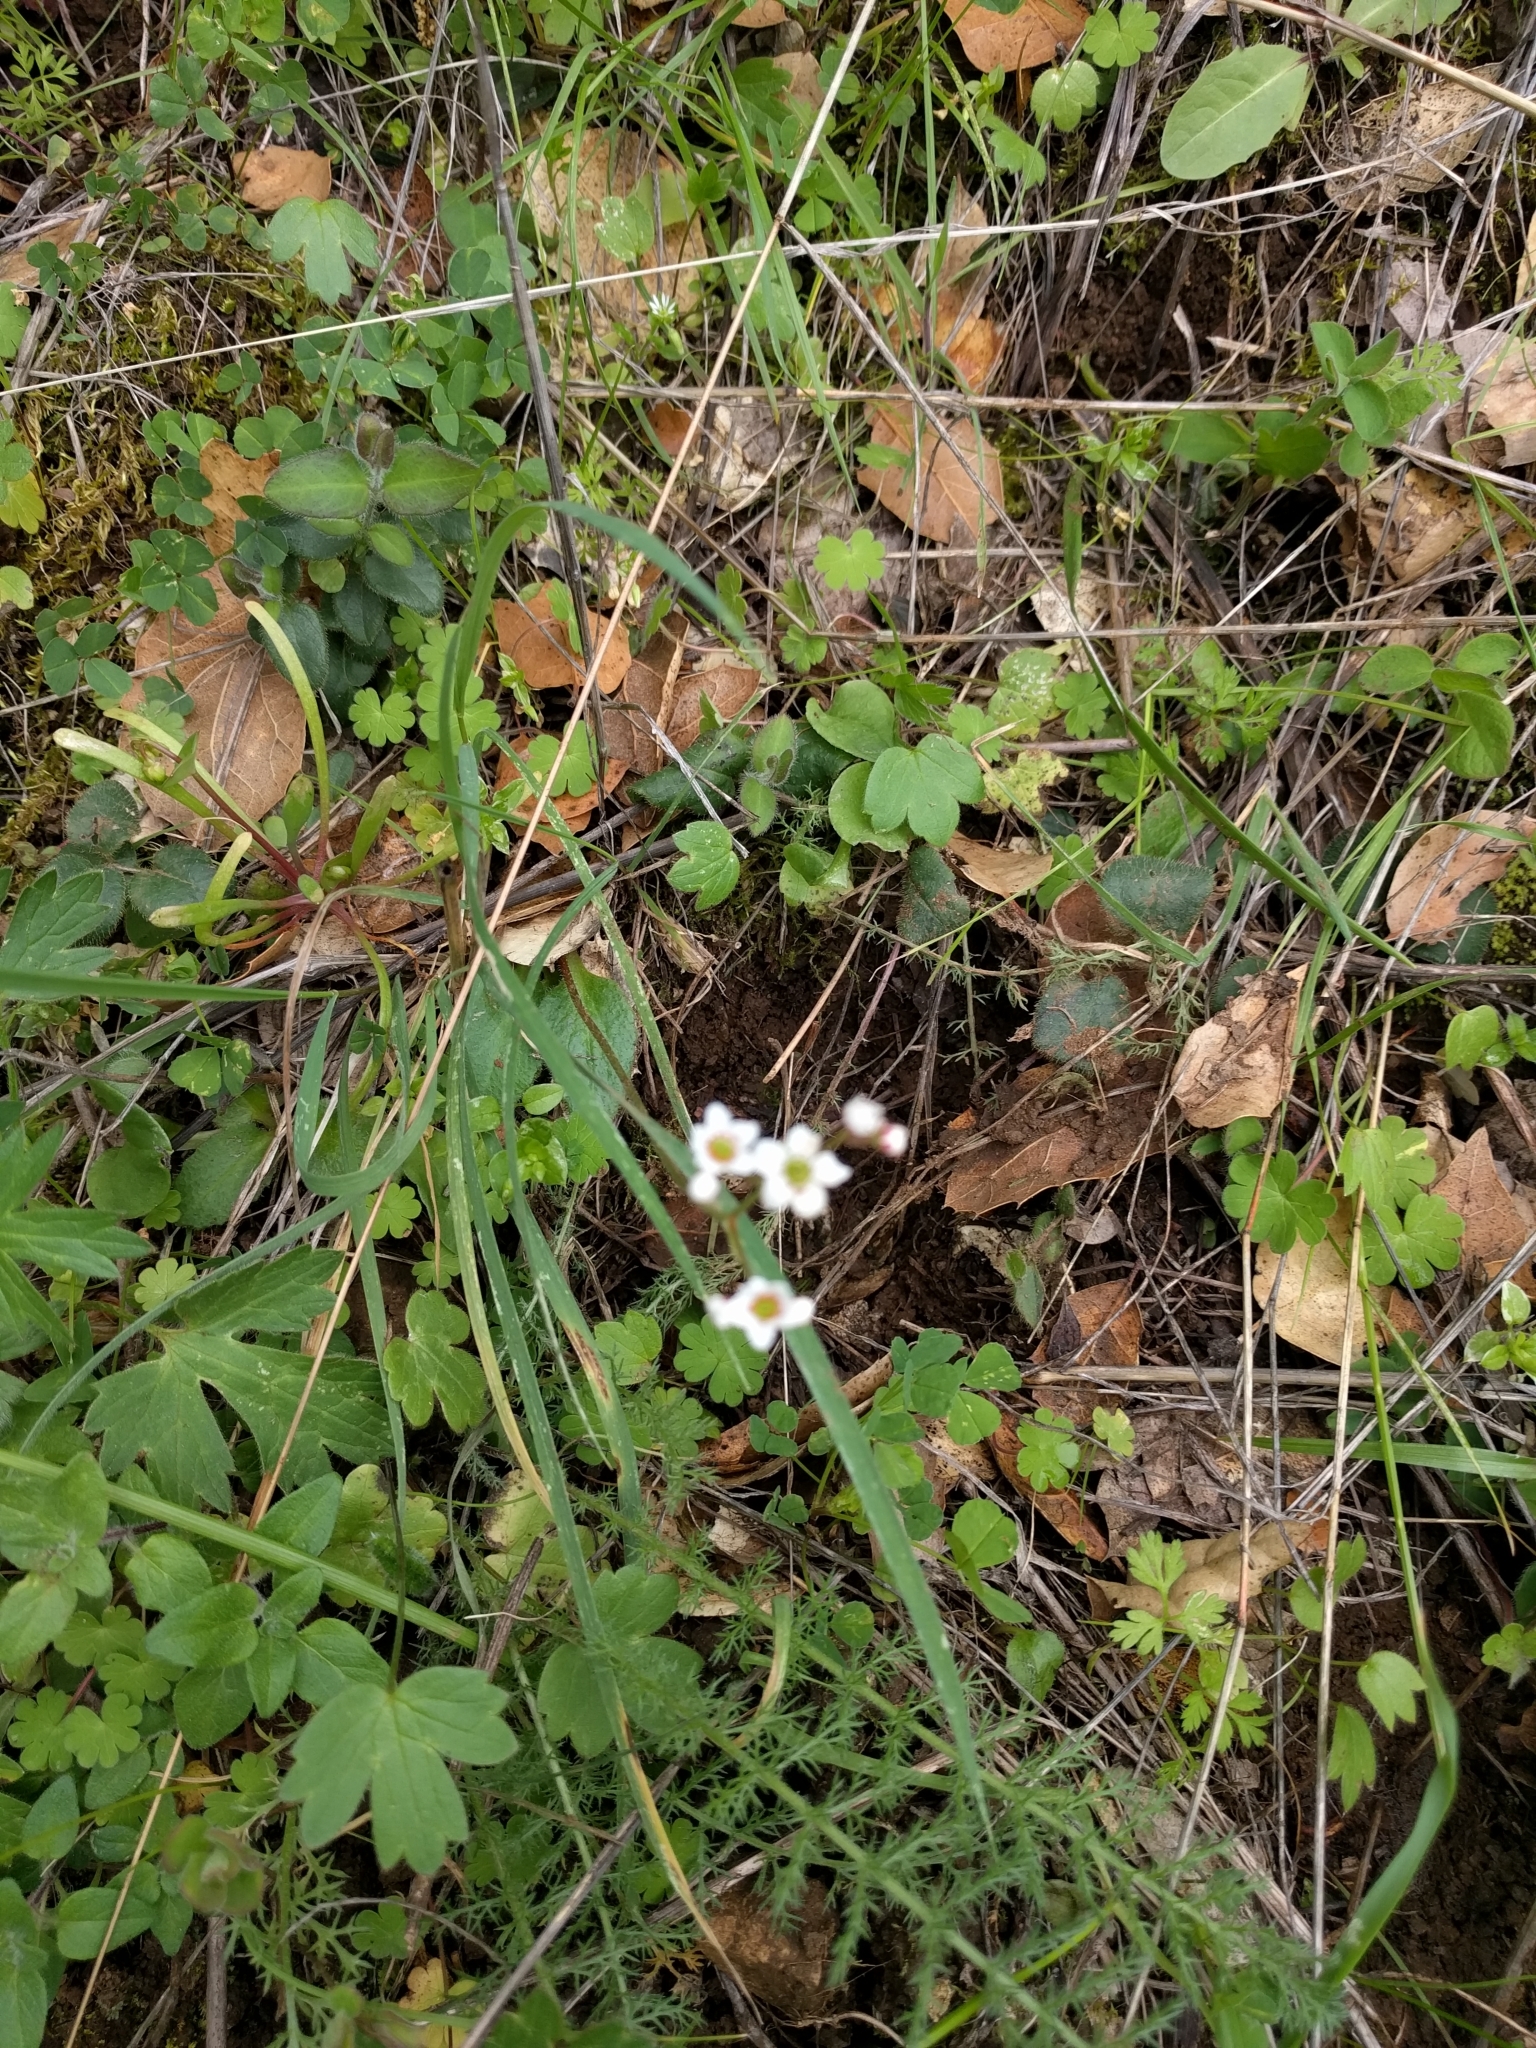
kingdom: Plantae
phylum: Tracheophyta
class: Magnoliopsida
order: Saxifragales
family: Saxifragaceae
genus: Micranthes
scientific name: Micranthes californica
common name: California saxifrage
